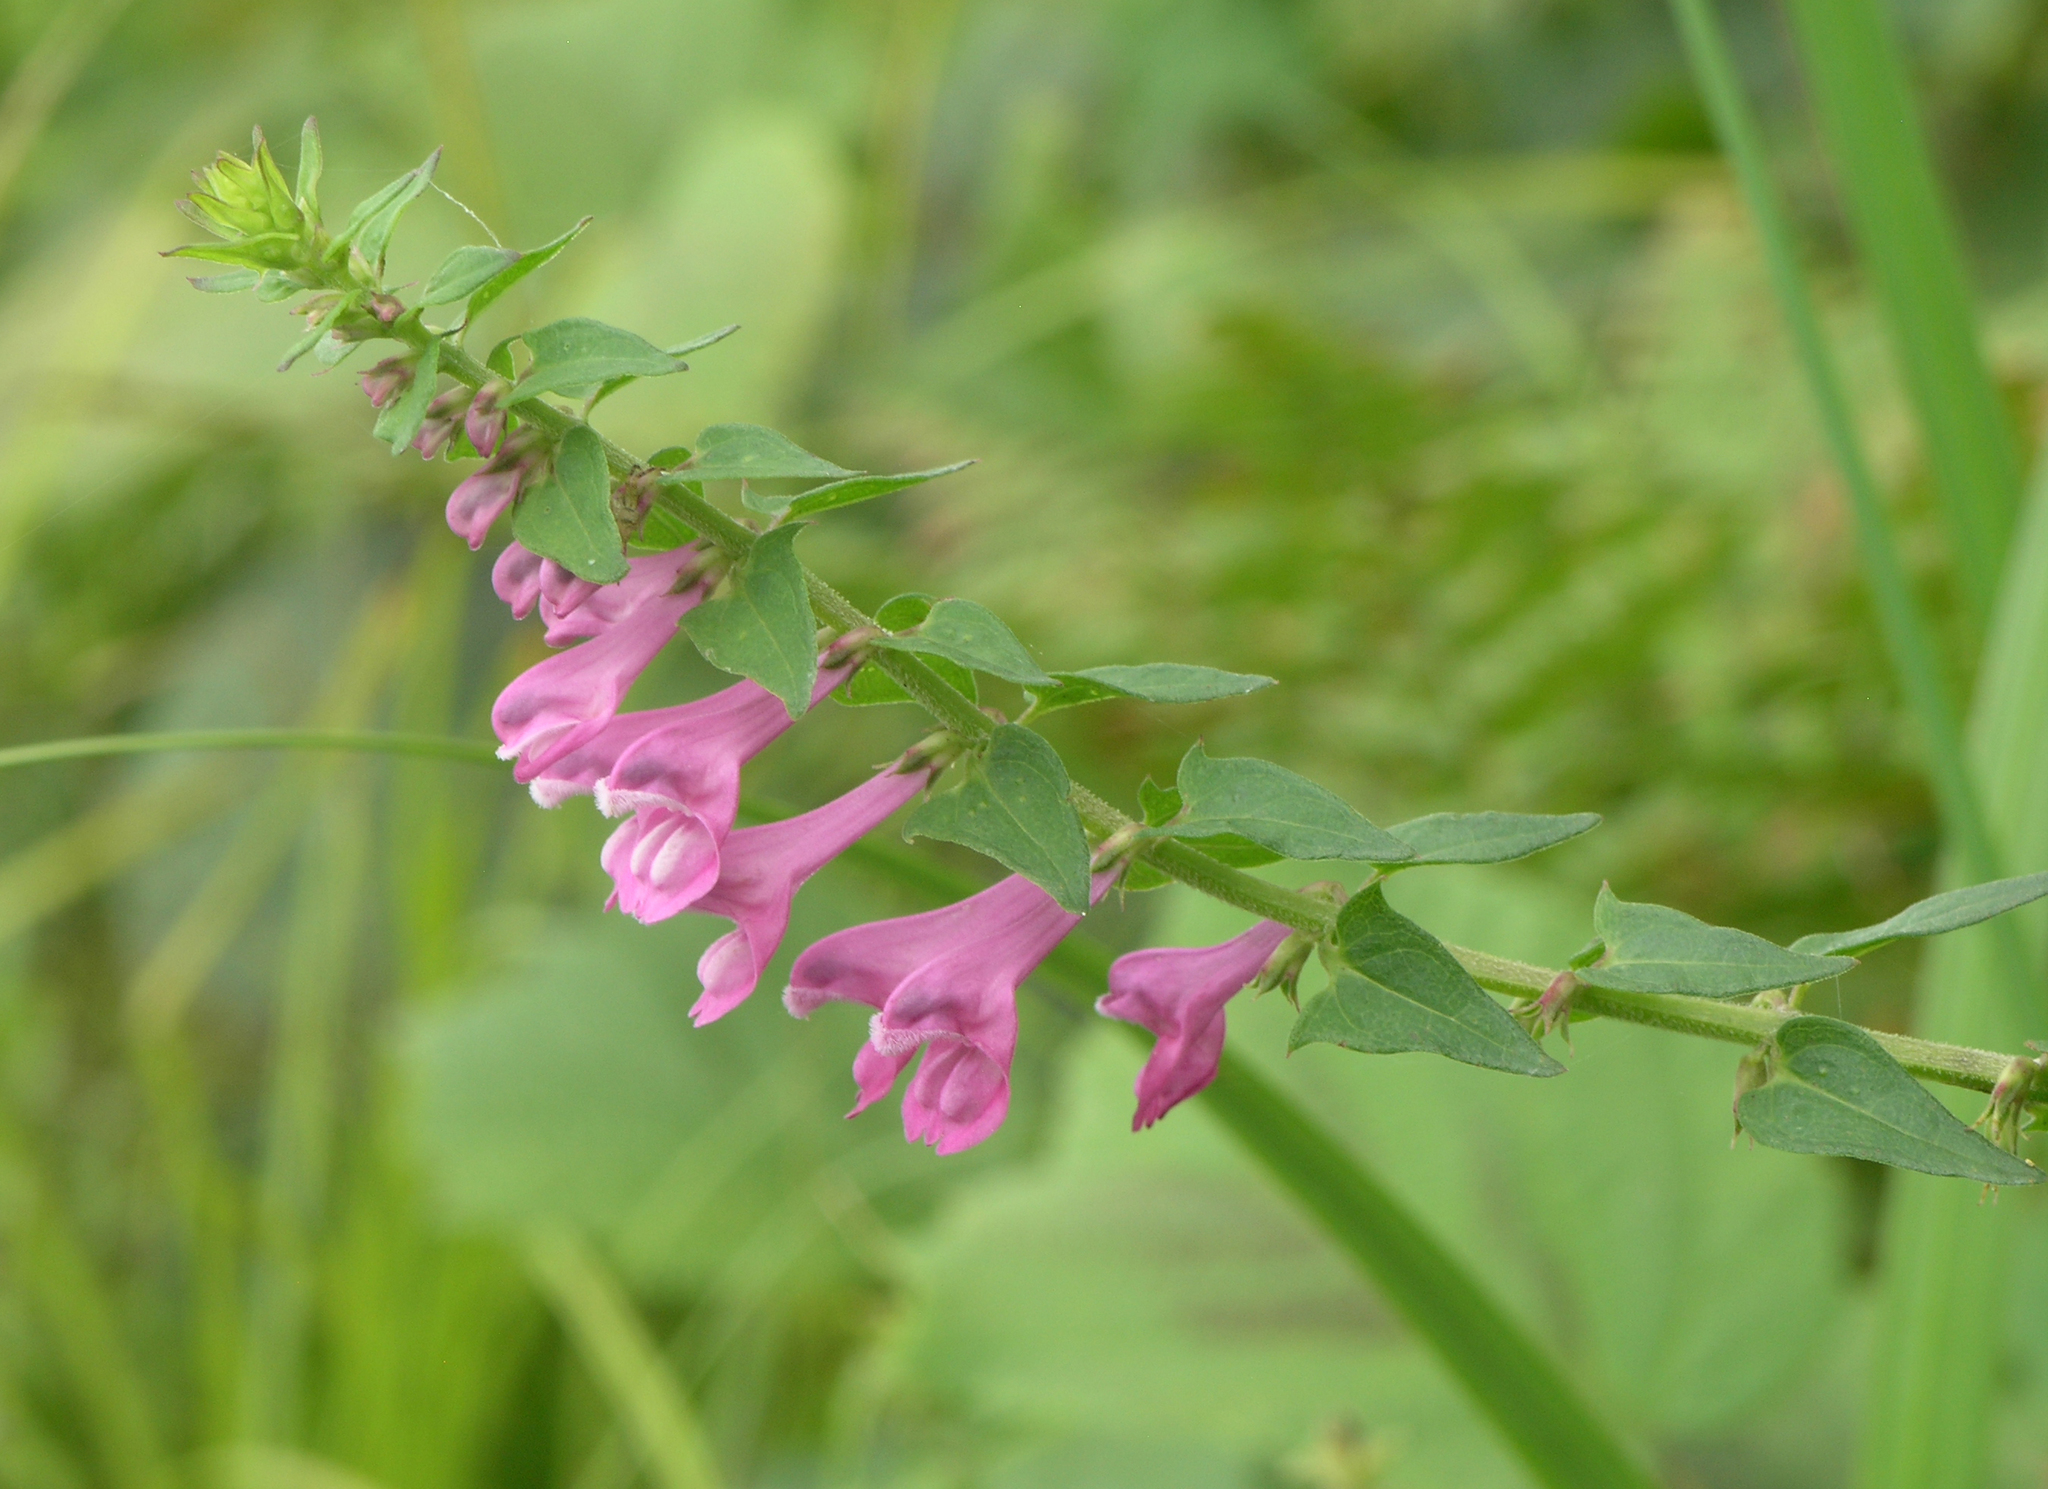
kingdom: Plantae
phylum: Tracheophyta
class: Magnoliopsida
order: Lamiales
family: Orobanchaceae
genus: Melampyrum
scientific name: Melampyrum roseum
